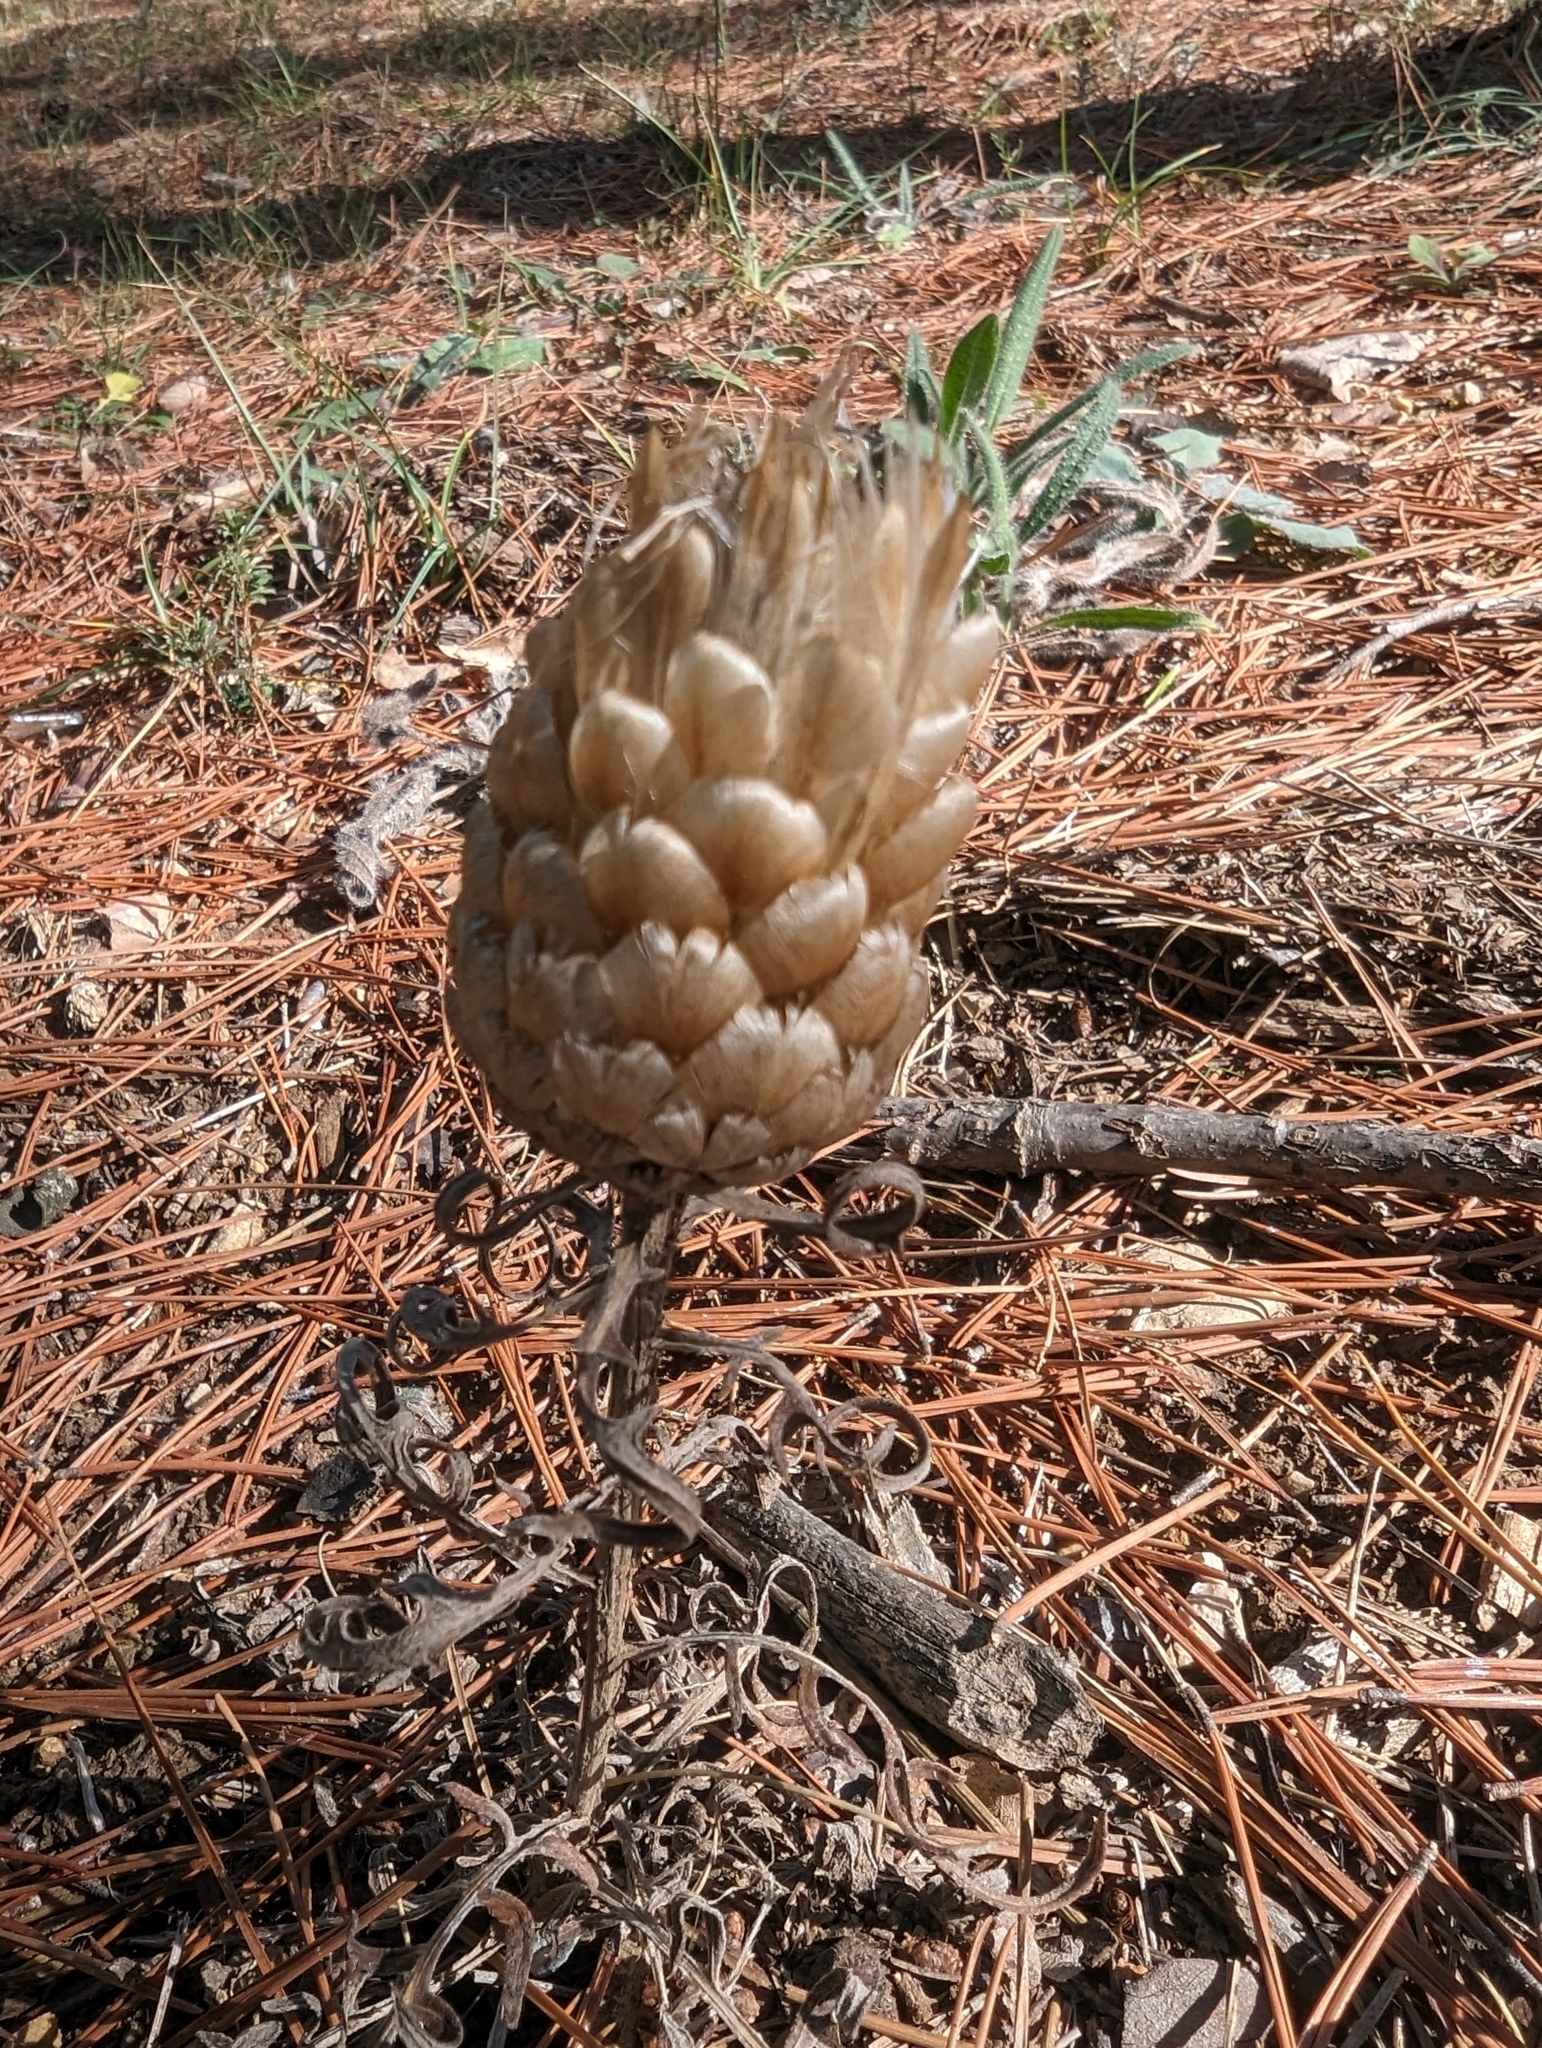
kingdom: Plantae
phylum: Tracheophyta
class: Magnoliopsida
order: Asterales
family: Asteraceae
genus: Leuzea
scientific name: Leuzea conifera
